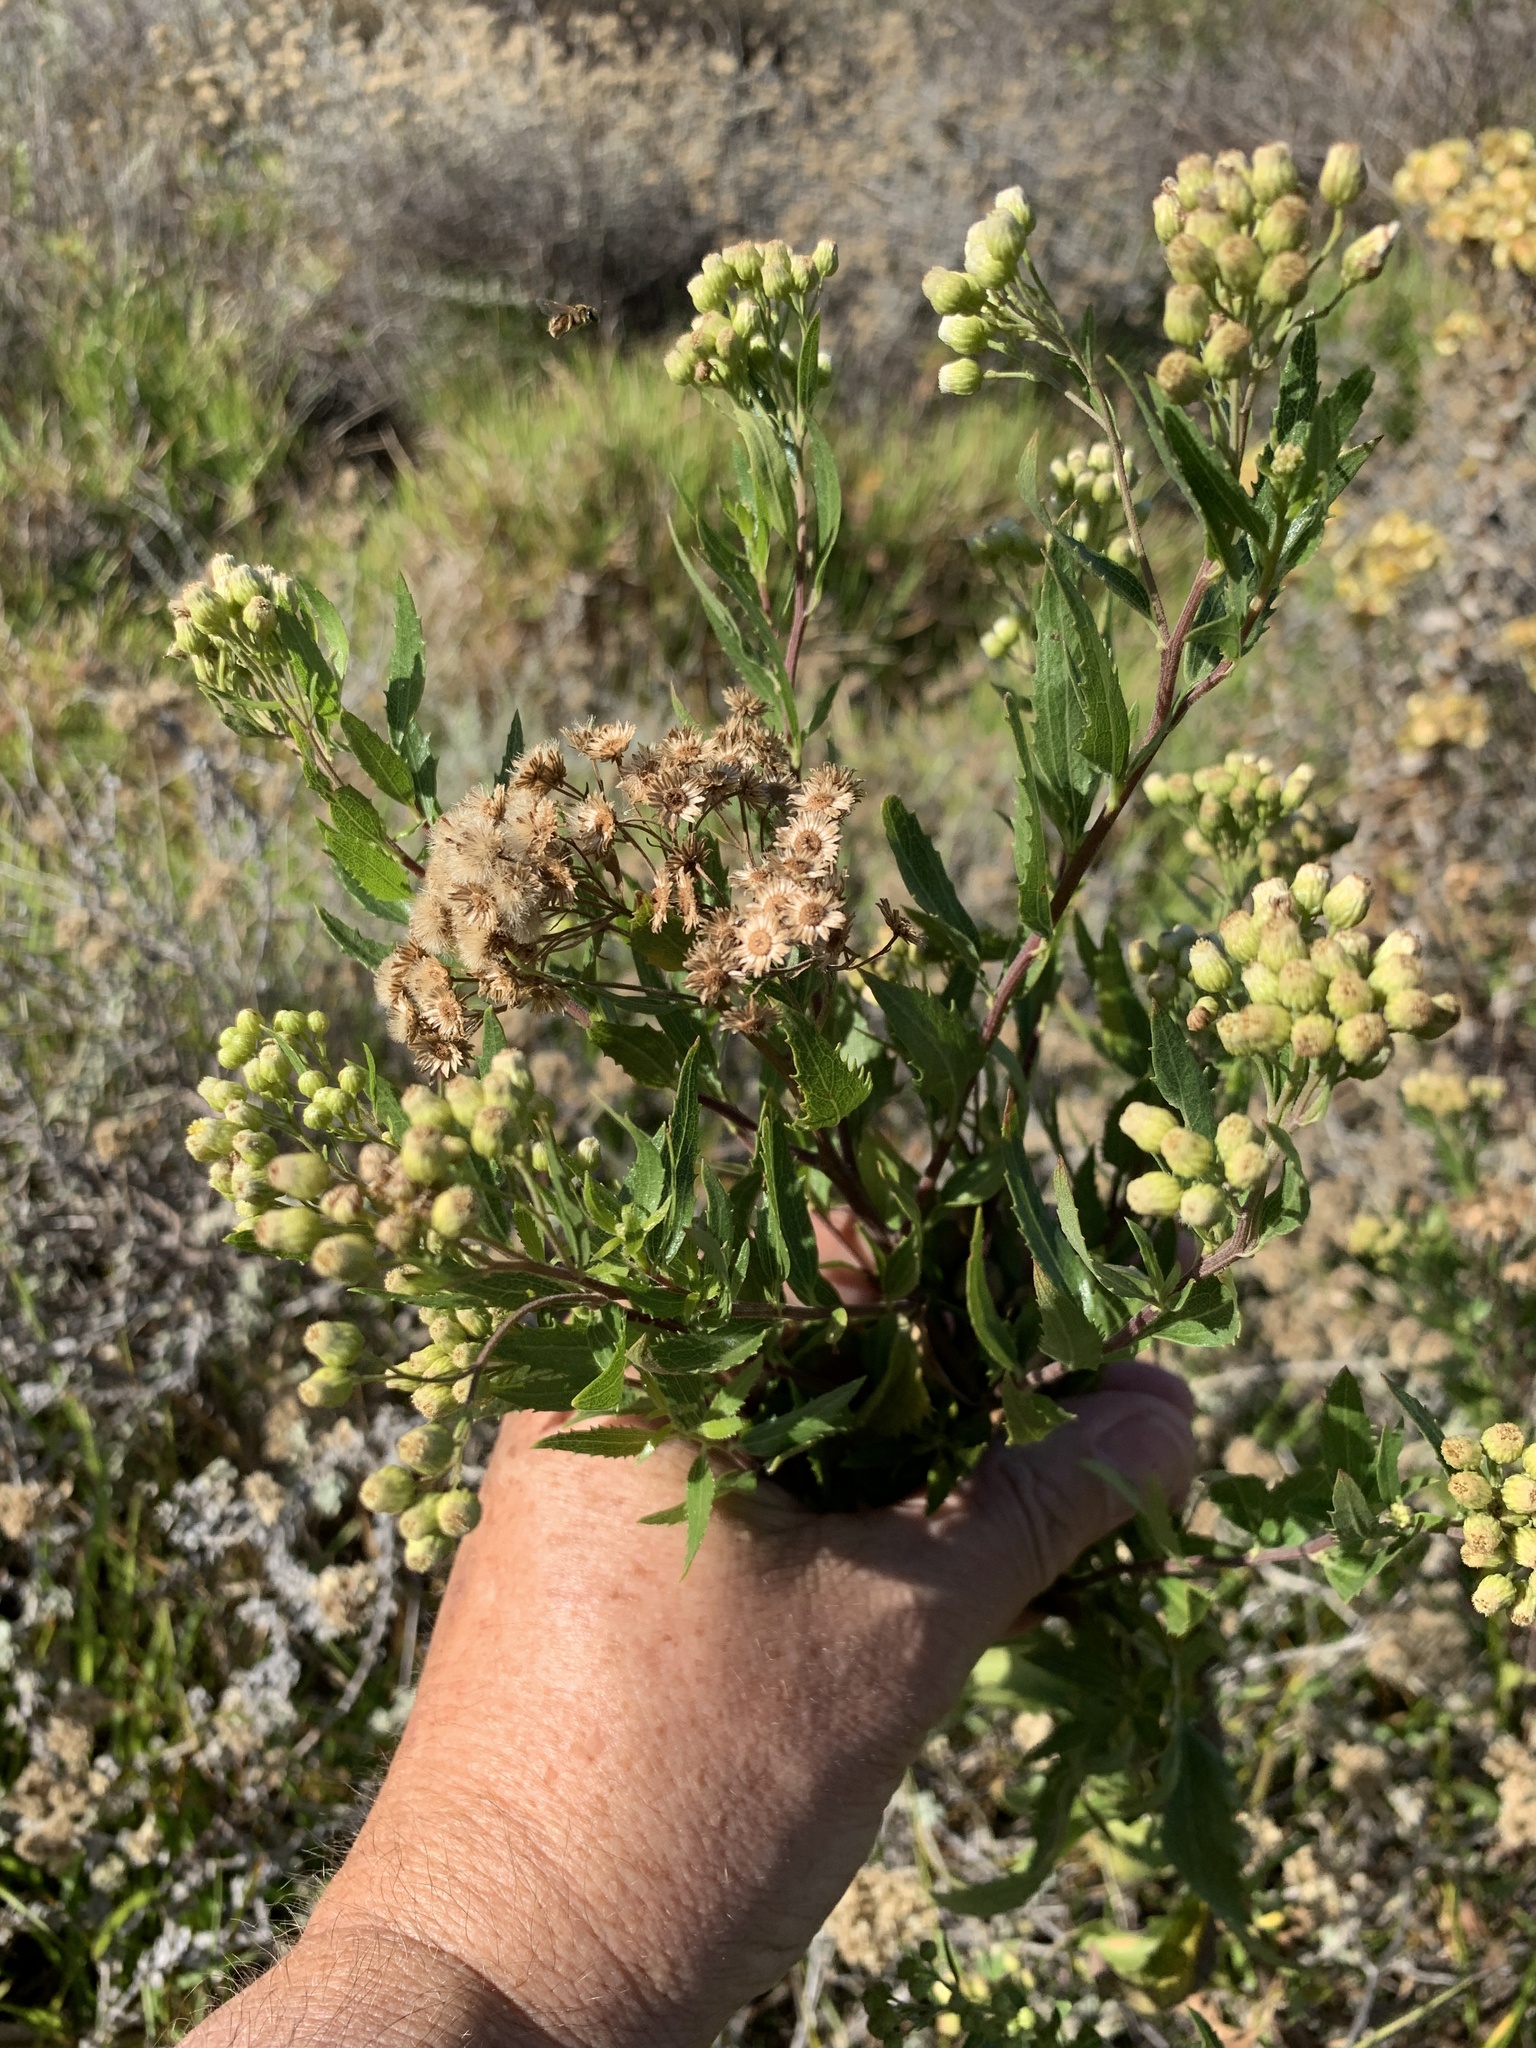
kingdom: Plantae
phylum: Tracheophyta
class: Magnoliopsida
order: Asterales
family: Asteraceae
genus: Nidorella
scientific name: Nidorella ivifolia
